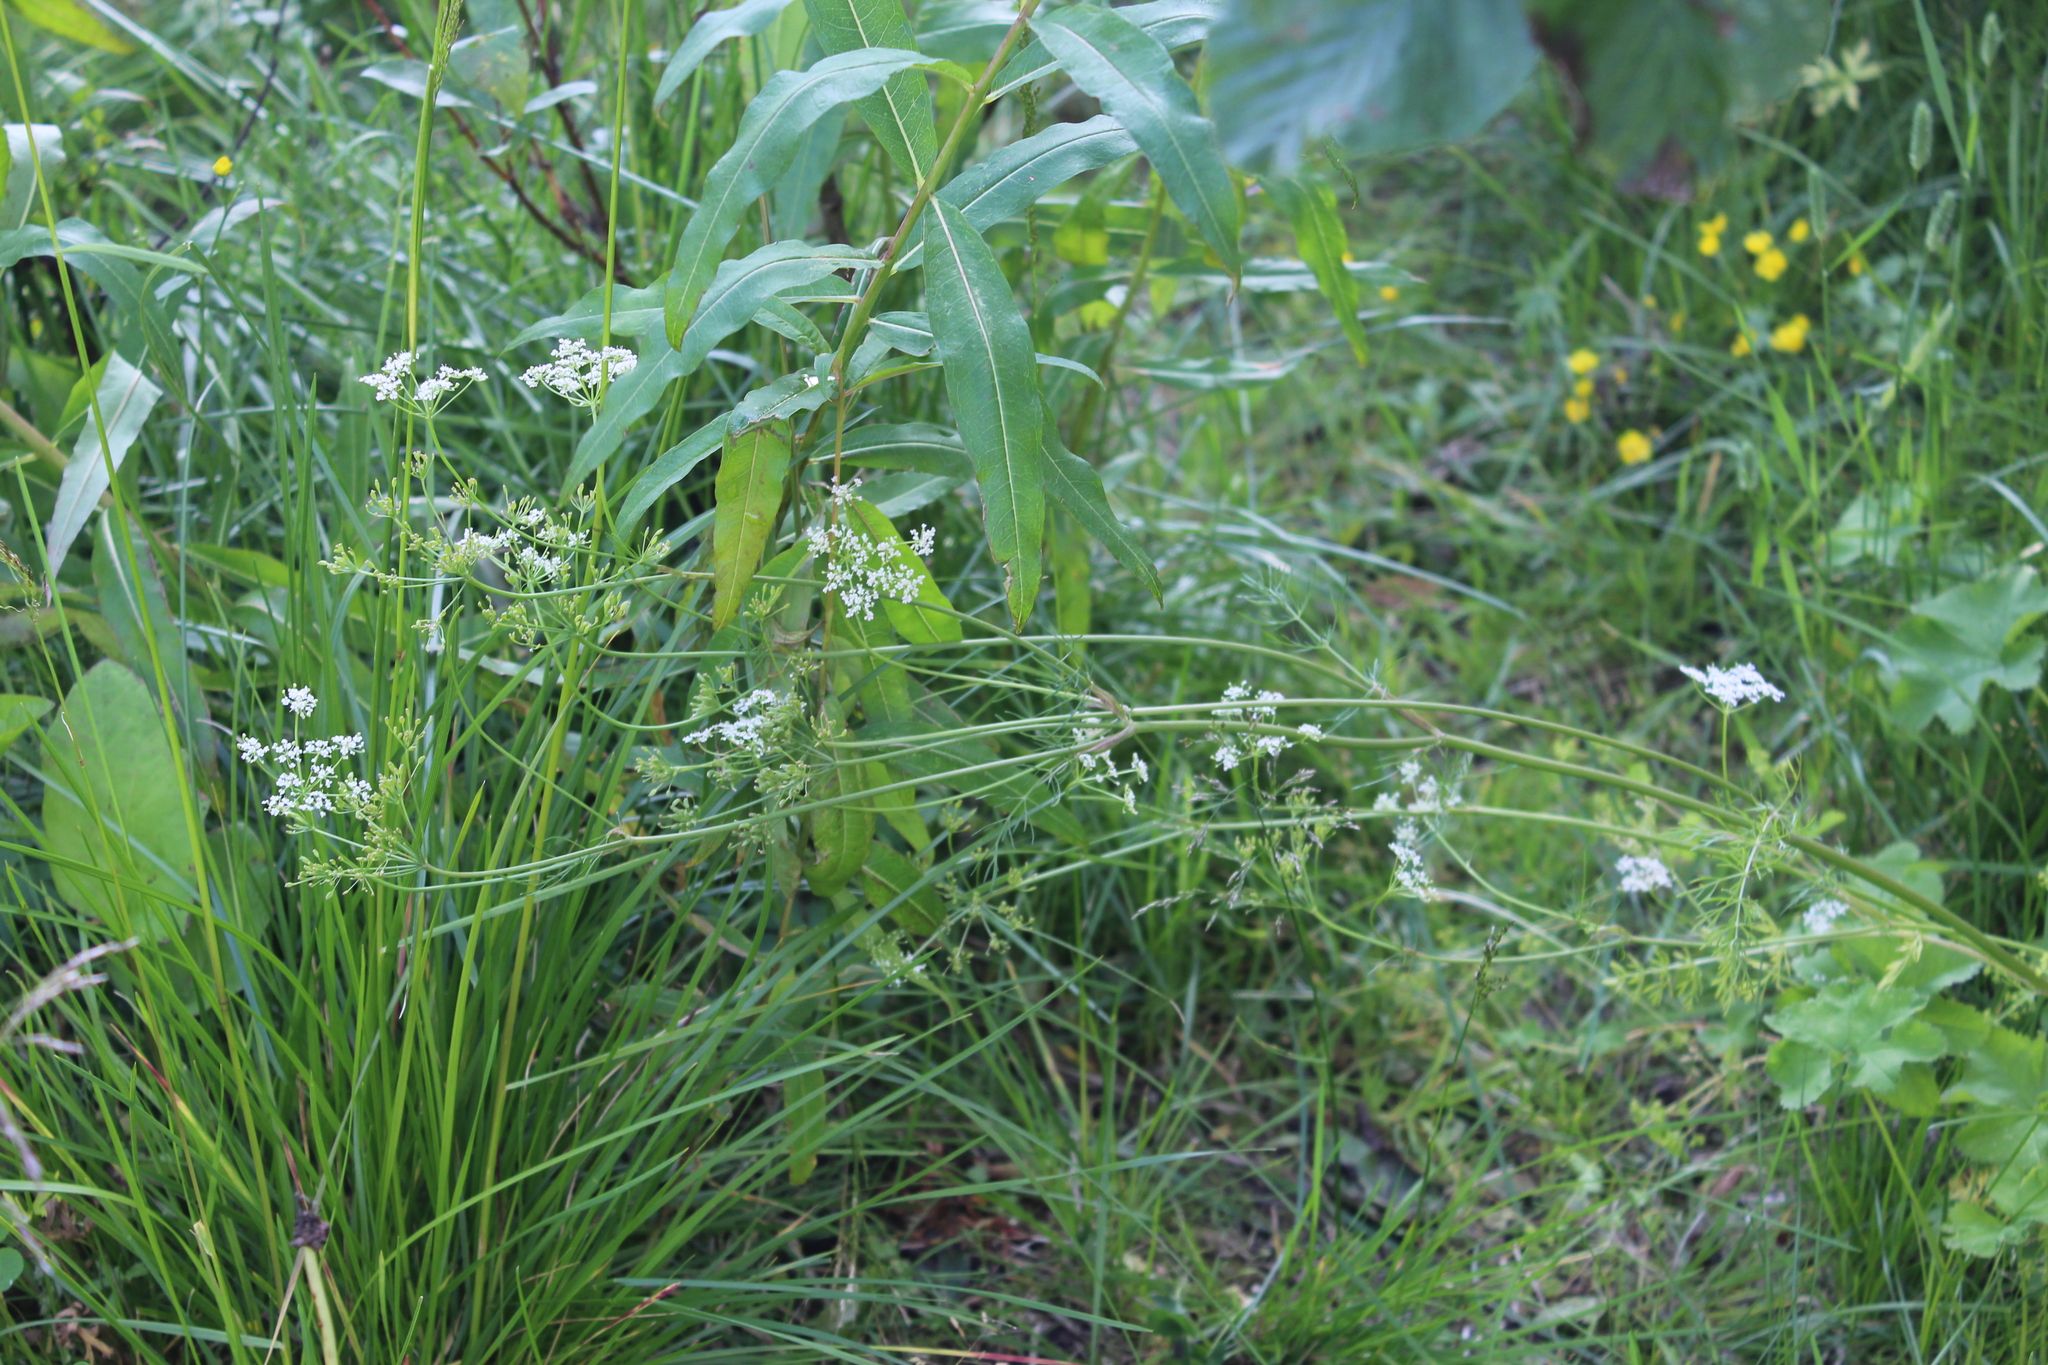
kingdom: Plantae
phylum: Tracheophyta
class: Magnoliopsida
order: Apiales
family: Apiaceae
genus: Carum
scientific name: Carum carvi
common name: Caraway
